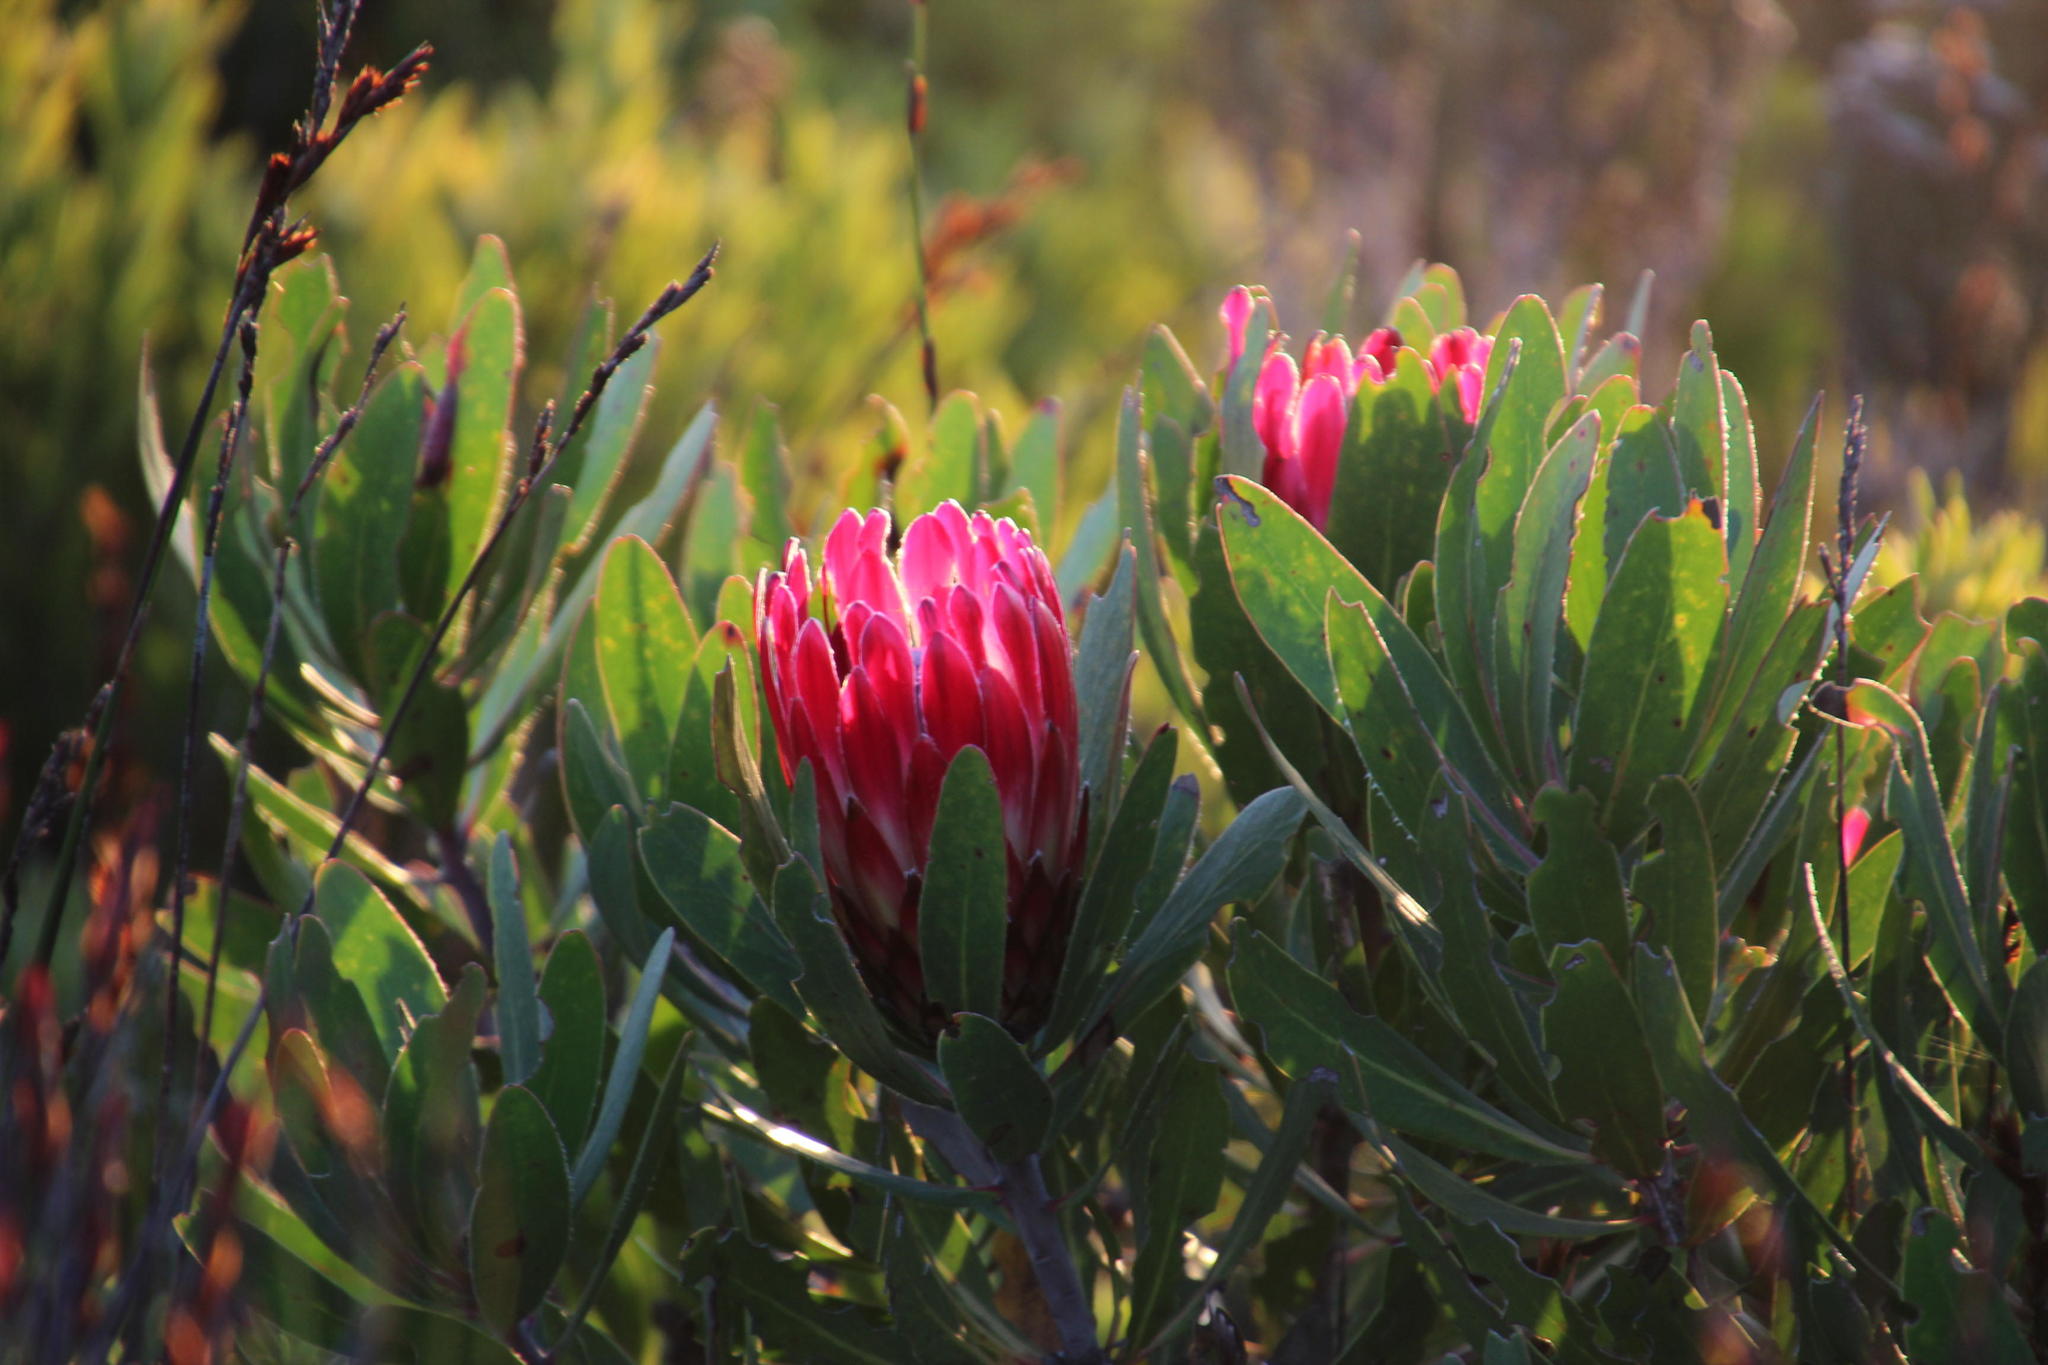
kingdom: Plantae
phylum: Tracheophyta
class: Magnoliopsida
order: Proteales
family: Proteaceae
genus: Protea
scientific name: Protea obtusifolia
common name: Bredasdorp sugarbush
